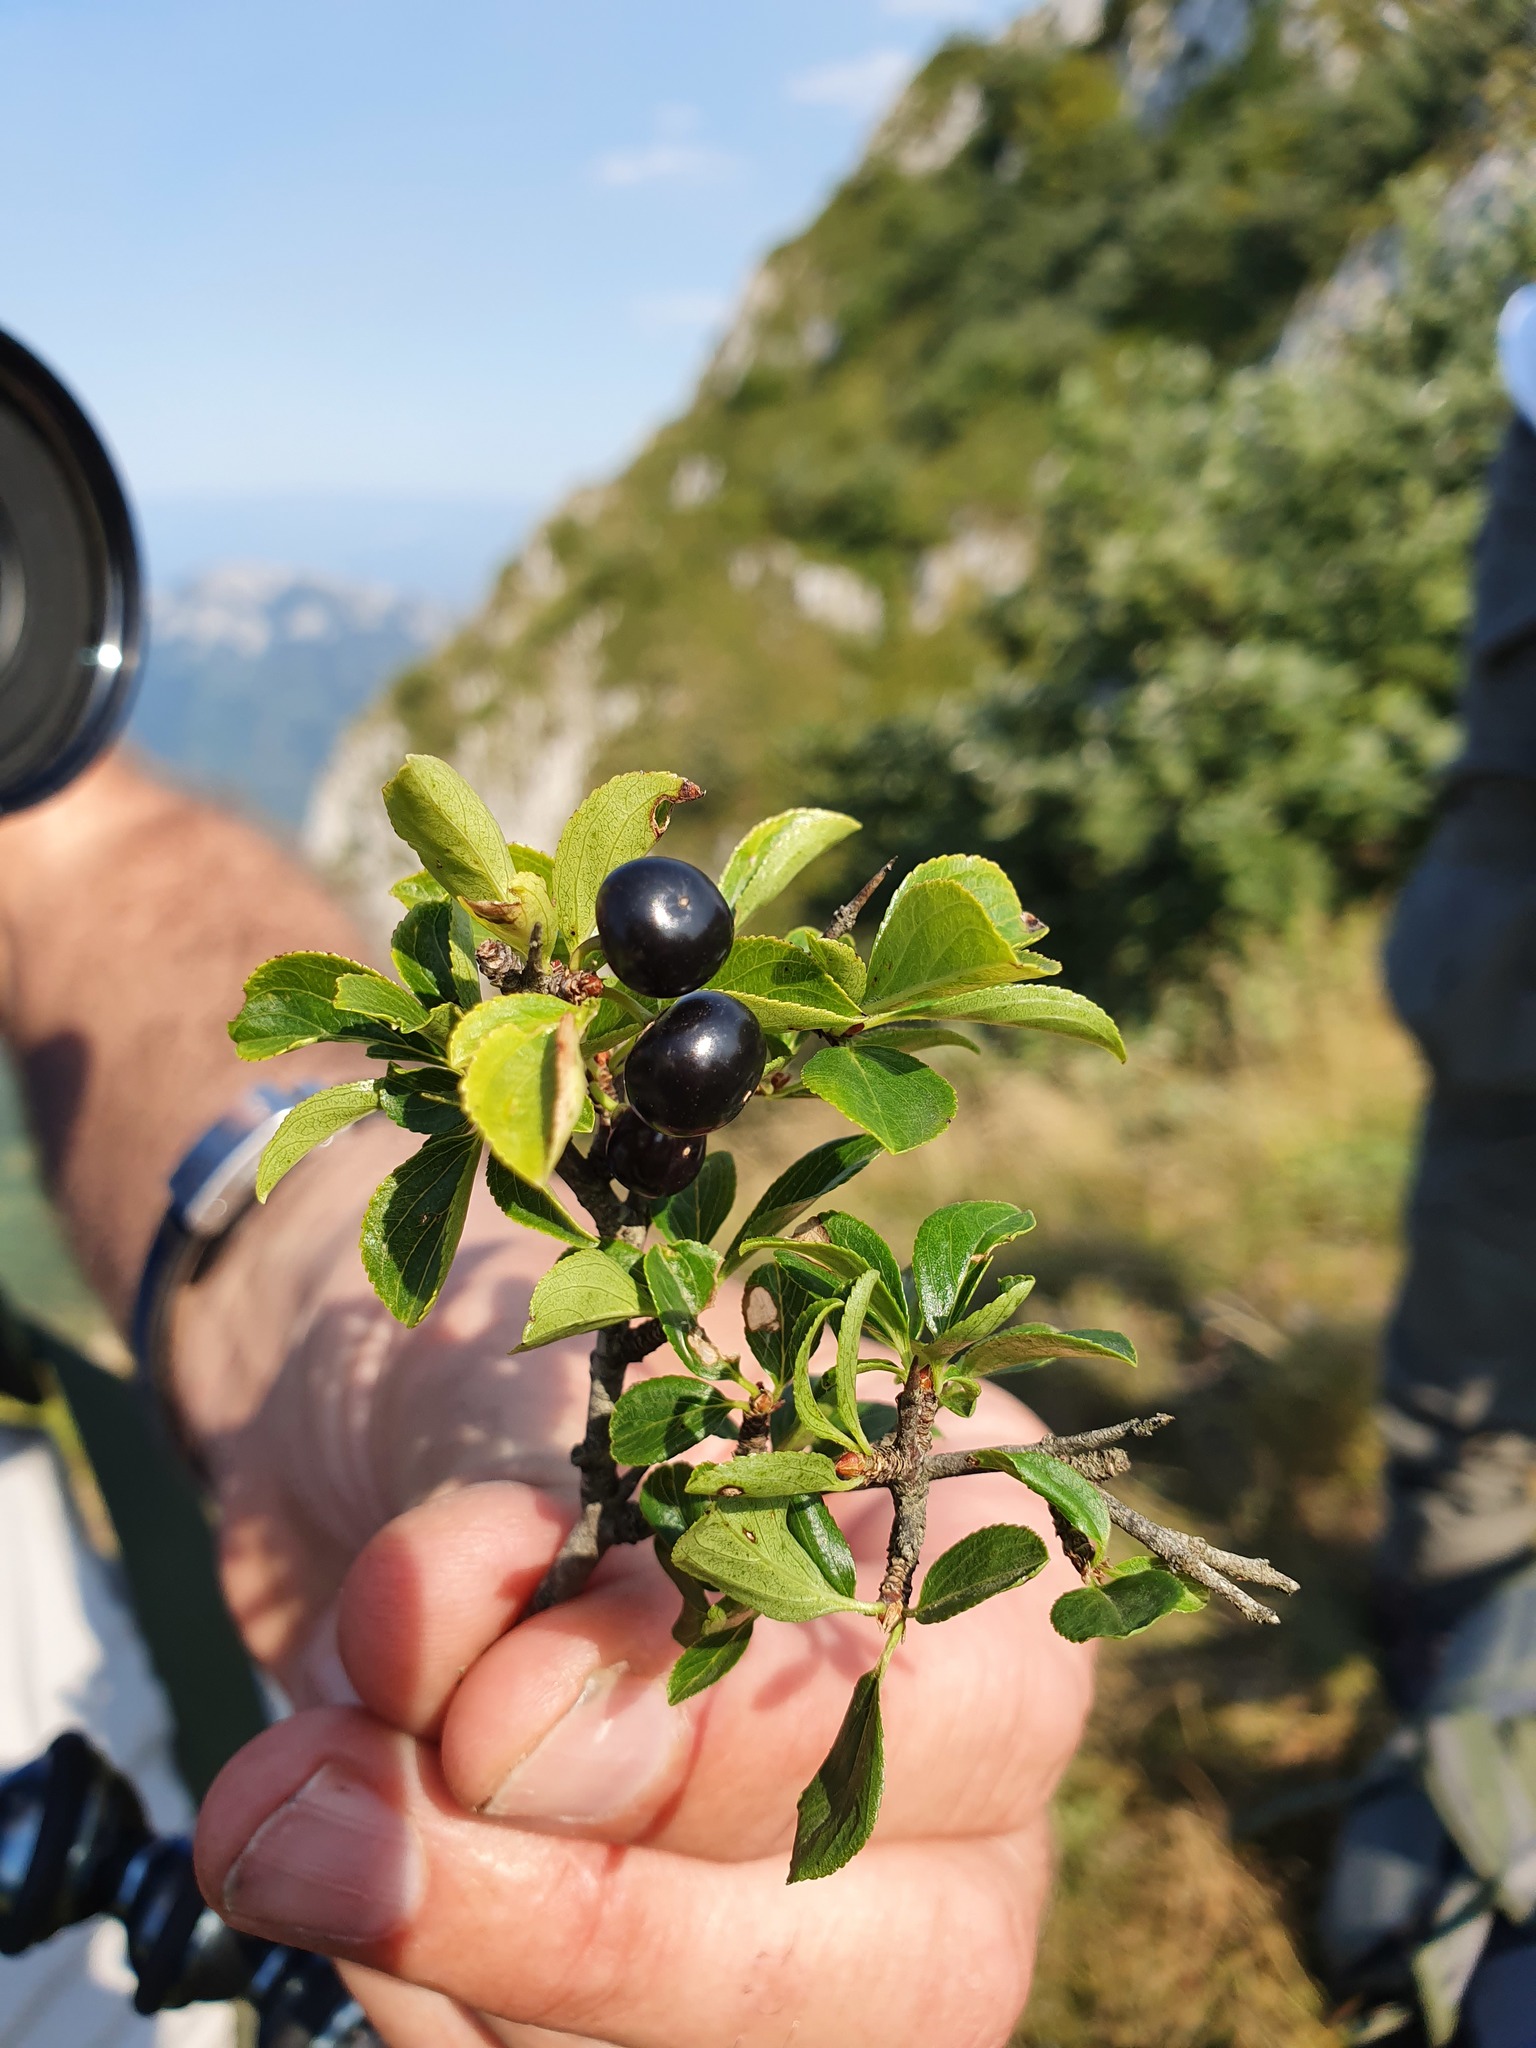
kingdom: Plantae
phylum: Tracheophyta
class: Magnoliopsida
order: Rosales
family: Rhamnaceae
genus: Rhamnus
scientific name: Rhamnus saxatilis
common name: Rock buckthorn
